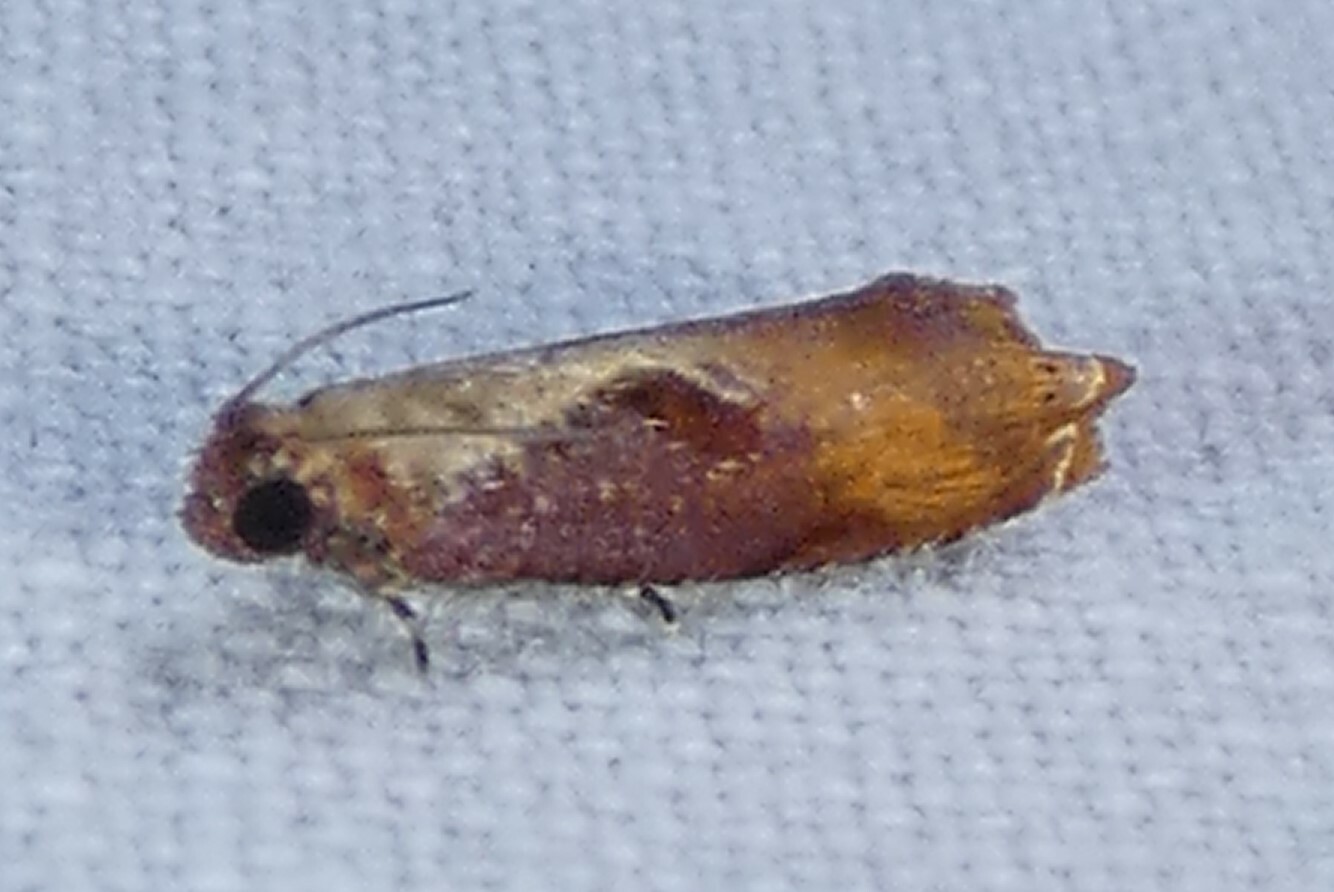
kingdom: Animalia
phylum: Arthropoda
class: Insecta
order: Lepidoptera
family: Tortricidae
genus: Episimus
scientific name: Episimus tyrius
